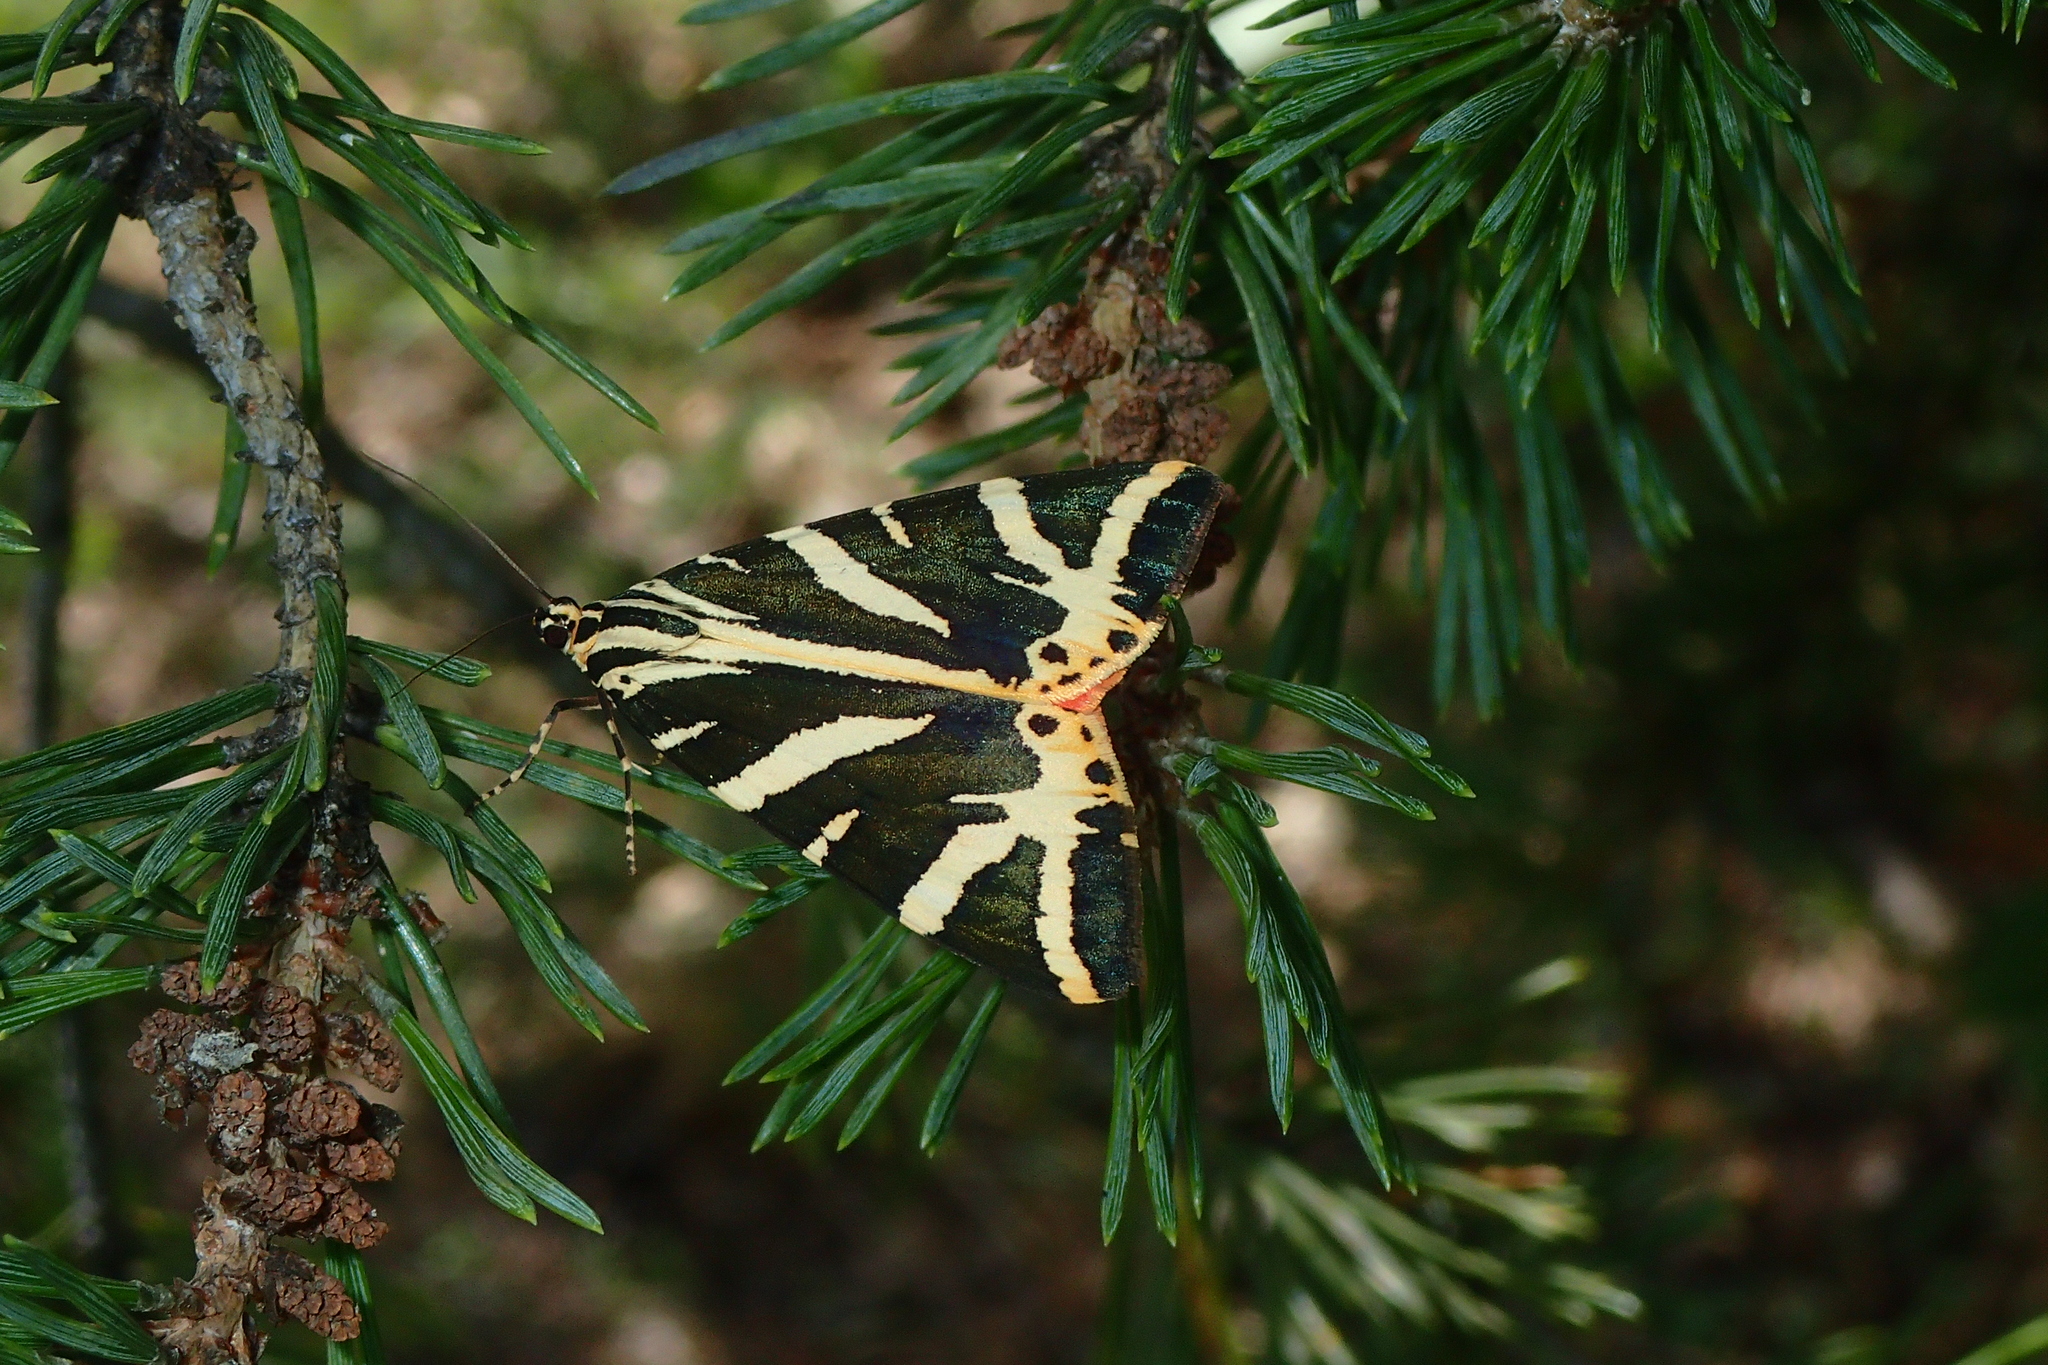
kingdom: Animalia
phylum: Arthropoda
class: Insecta
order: Lepidoptera
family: Erebidae
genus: Euplagia
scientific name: Euplagia quadripunctaria
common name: Jersey tiger
